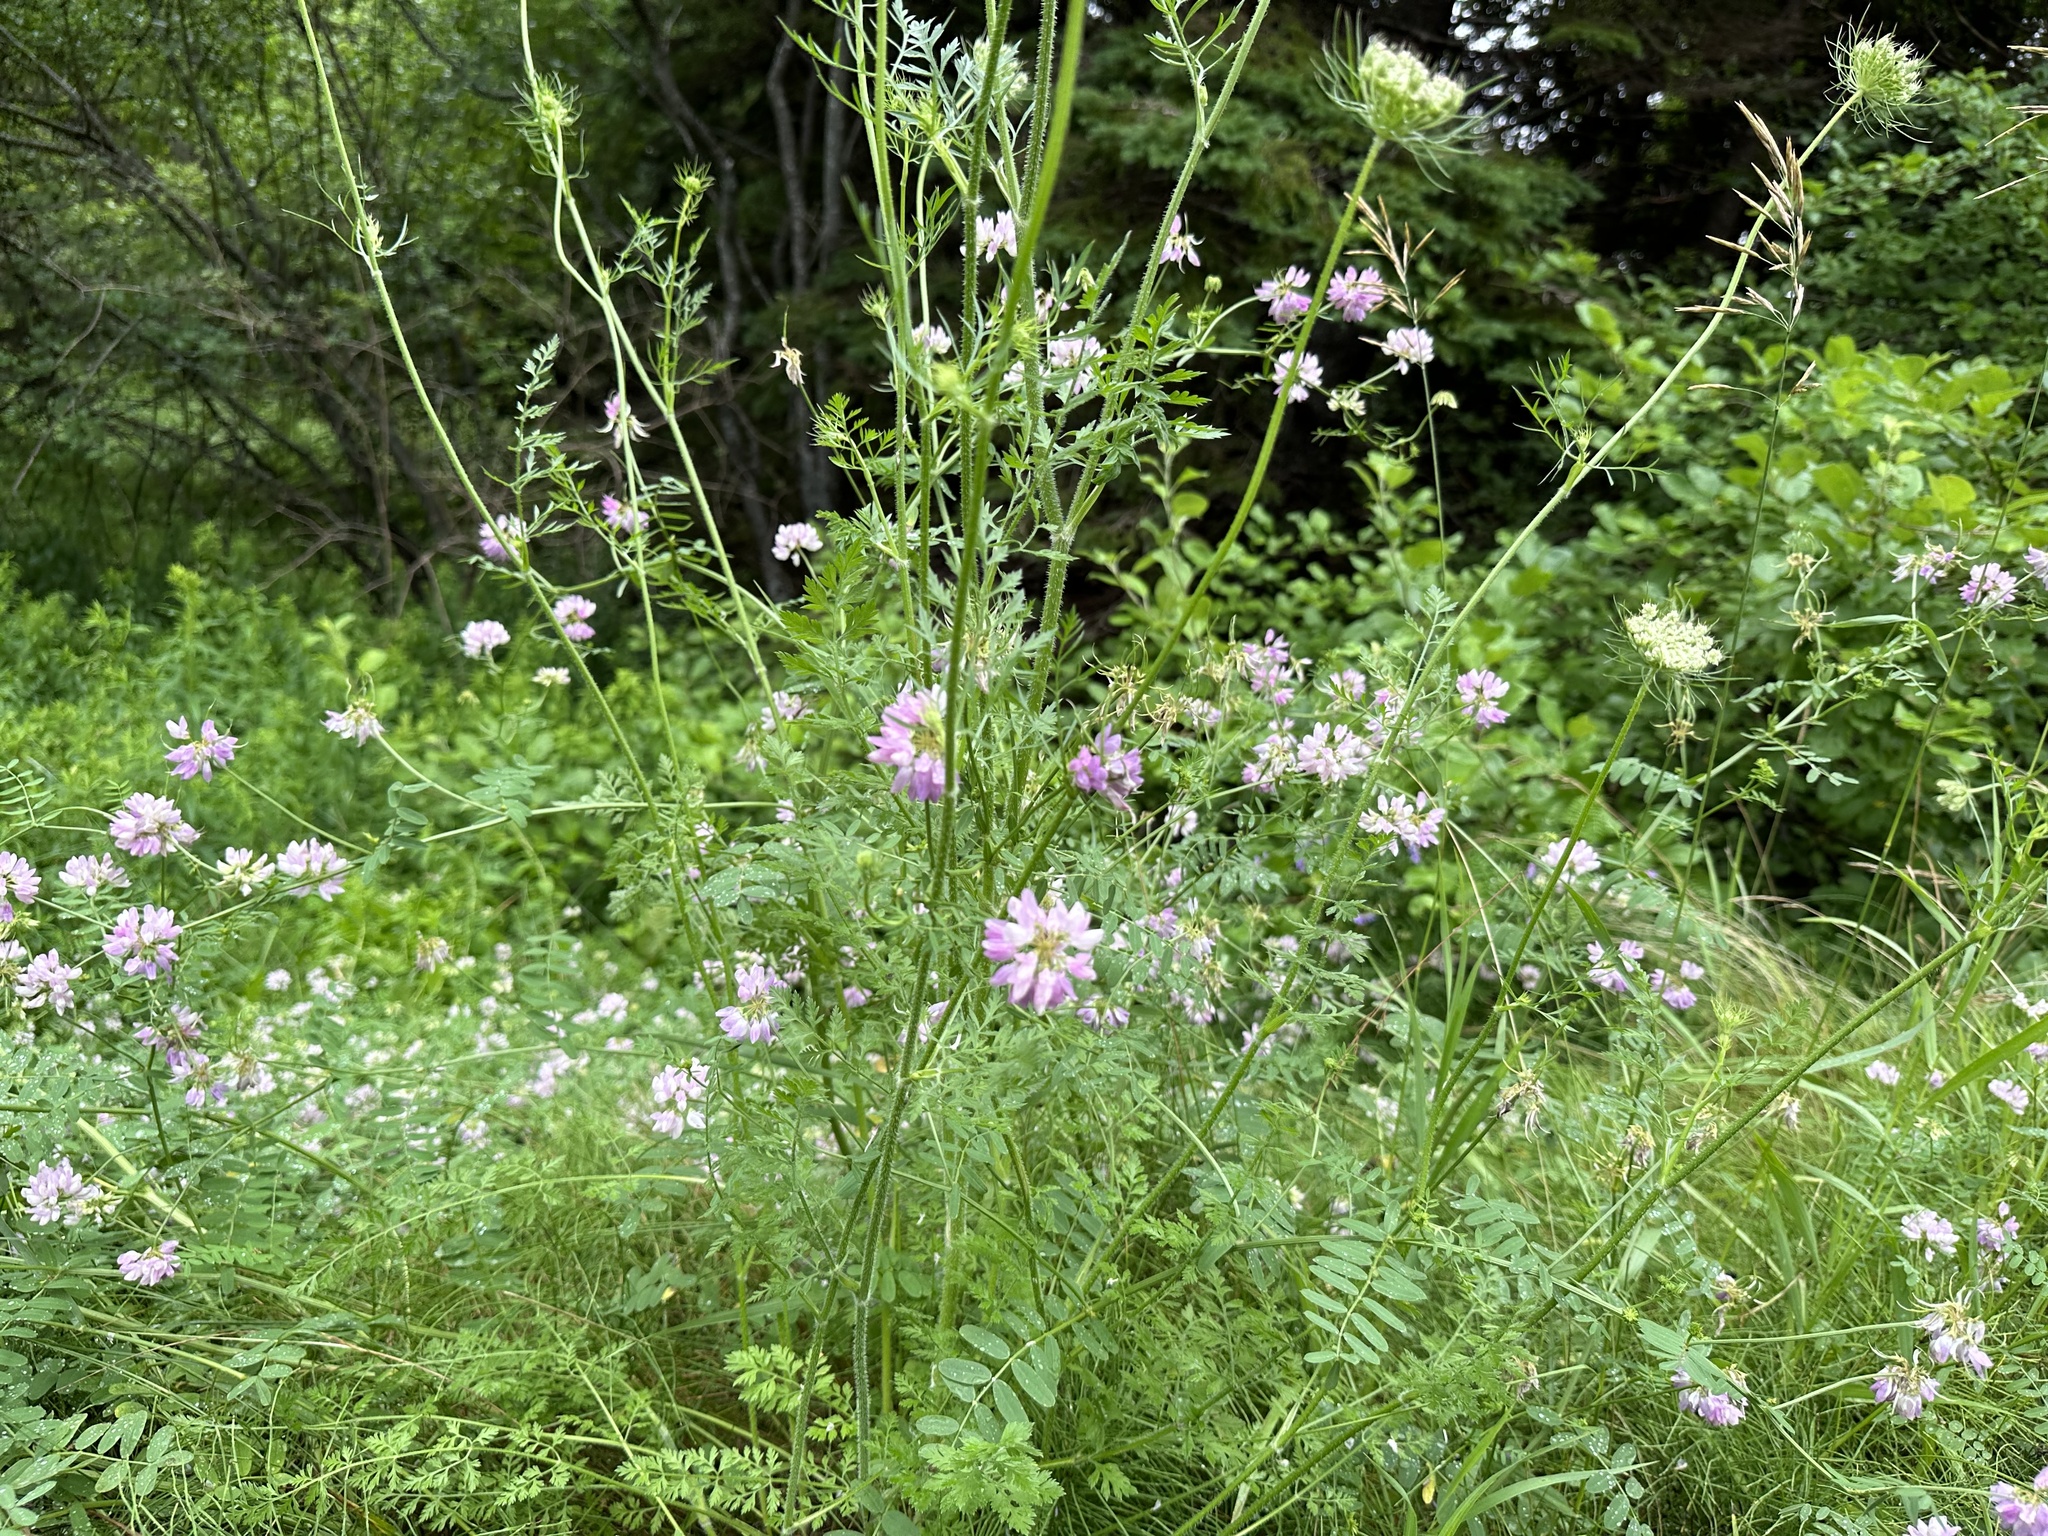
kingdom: Plantae
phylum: Tracheophyta
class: Magnoliopsida
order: Fabales
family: Fabaceae
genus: Coronilla
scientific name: Coronilla varia
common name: Crownvetch
